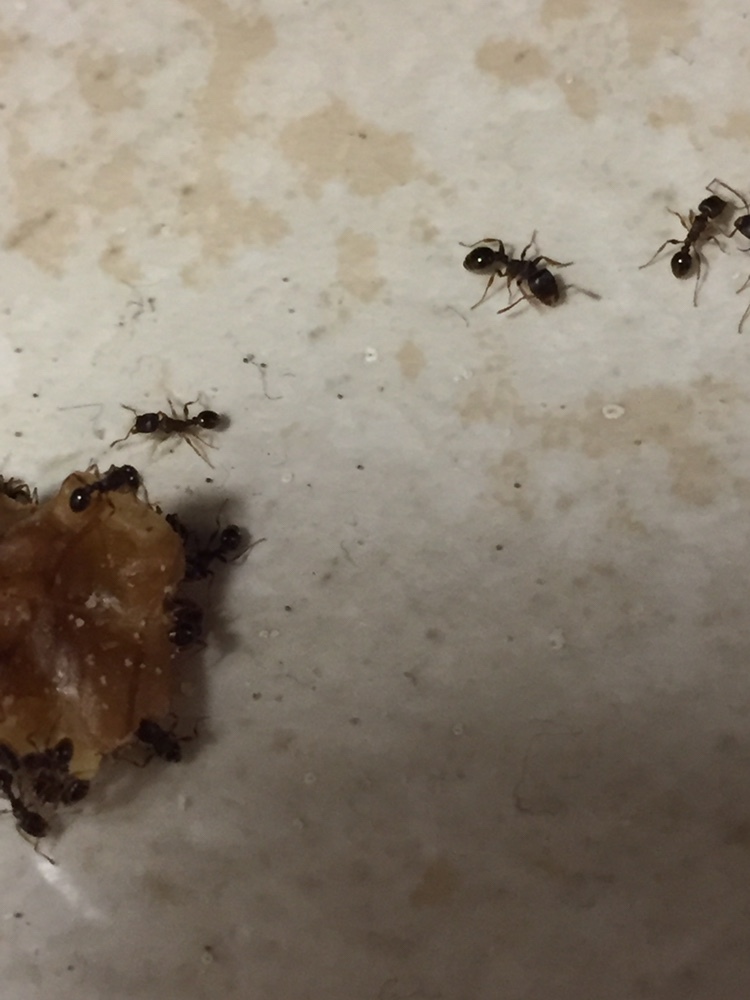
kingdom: Animalia
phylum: Arthropoda
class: Insecta
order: Hymenoptera
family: Formicidae
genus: Tetramorium
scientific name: Tetramorium immigrans
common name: Pavement ant
